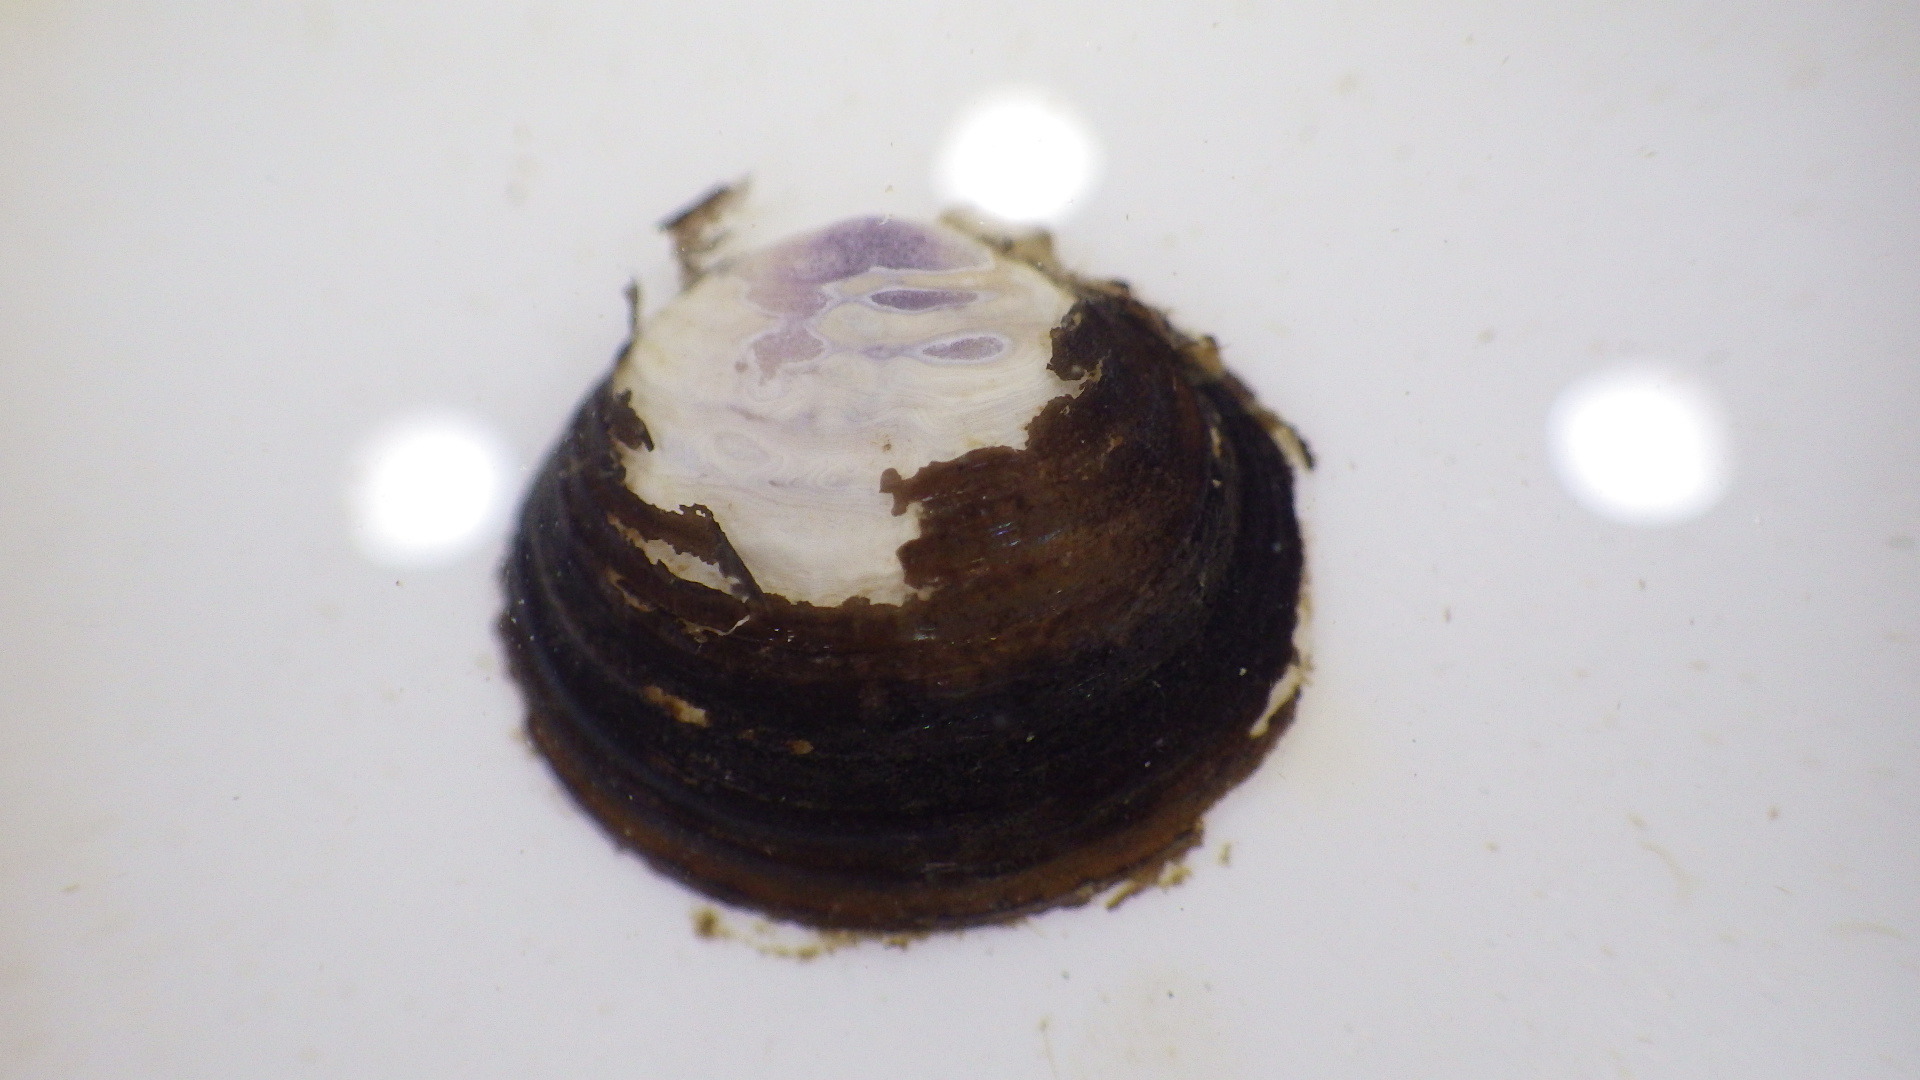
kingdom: Animalia
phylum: Mollusca
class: Bivalvia
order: Venerida
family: Cyrenidae
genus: Corbicula
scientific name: Corbicula fluminea
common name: Asian clam
